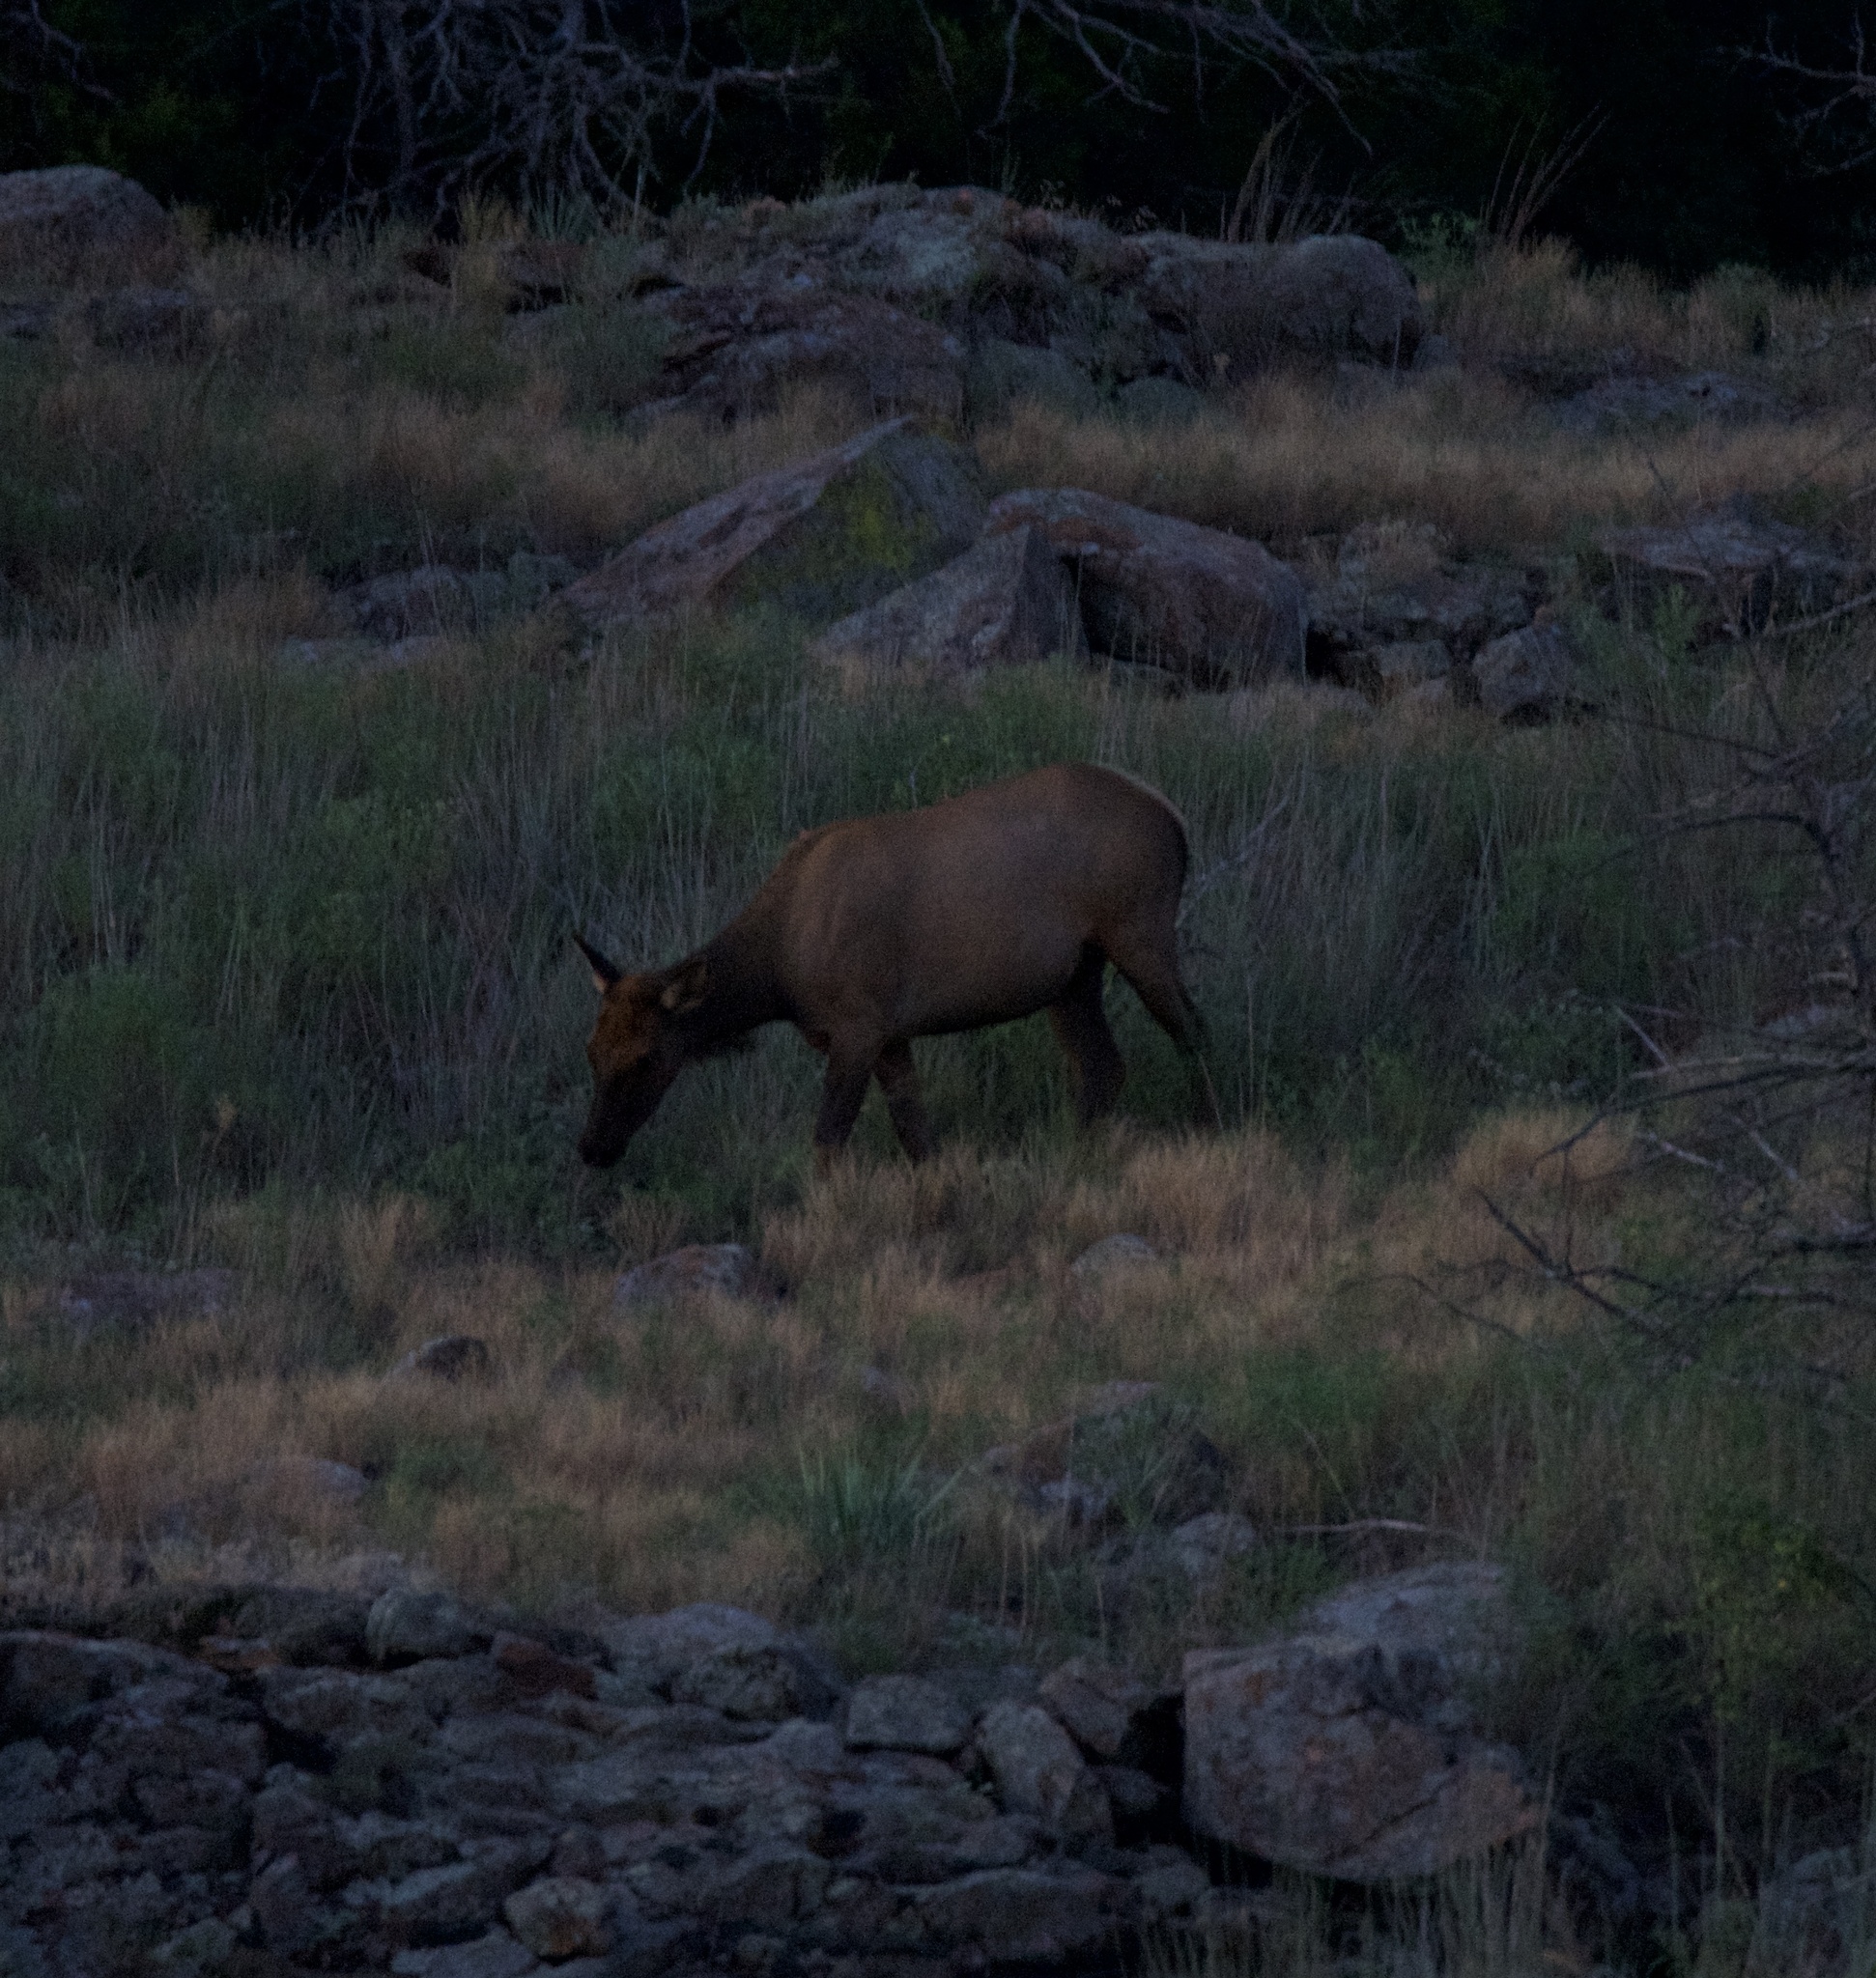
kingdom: Animalia
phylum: Chordata
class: Mammalia
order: Artiodactyla
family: Cervidae
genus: Cervus
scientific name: Cervus elaphus
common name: Red deer
